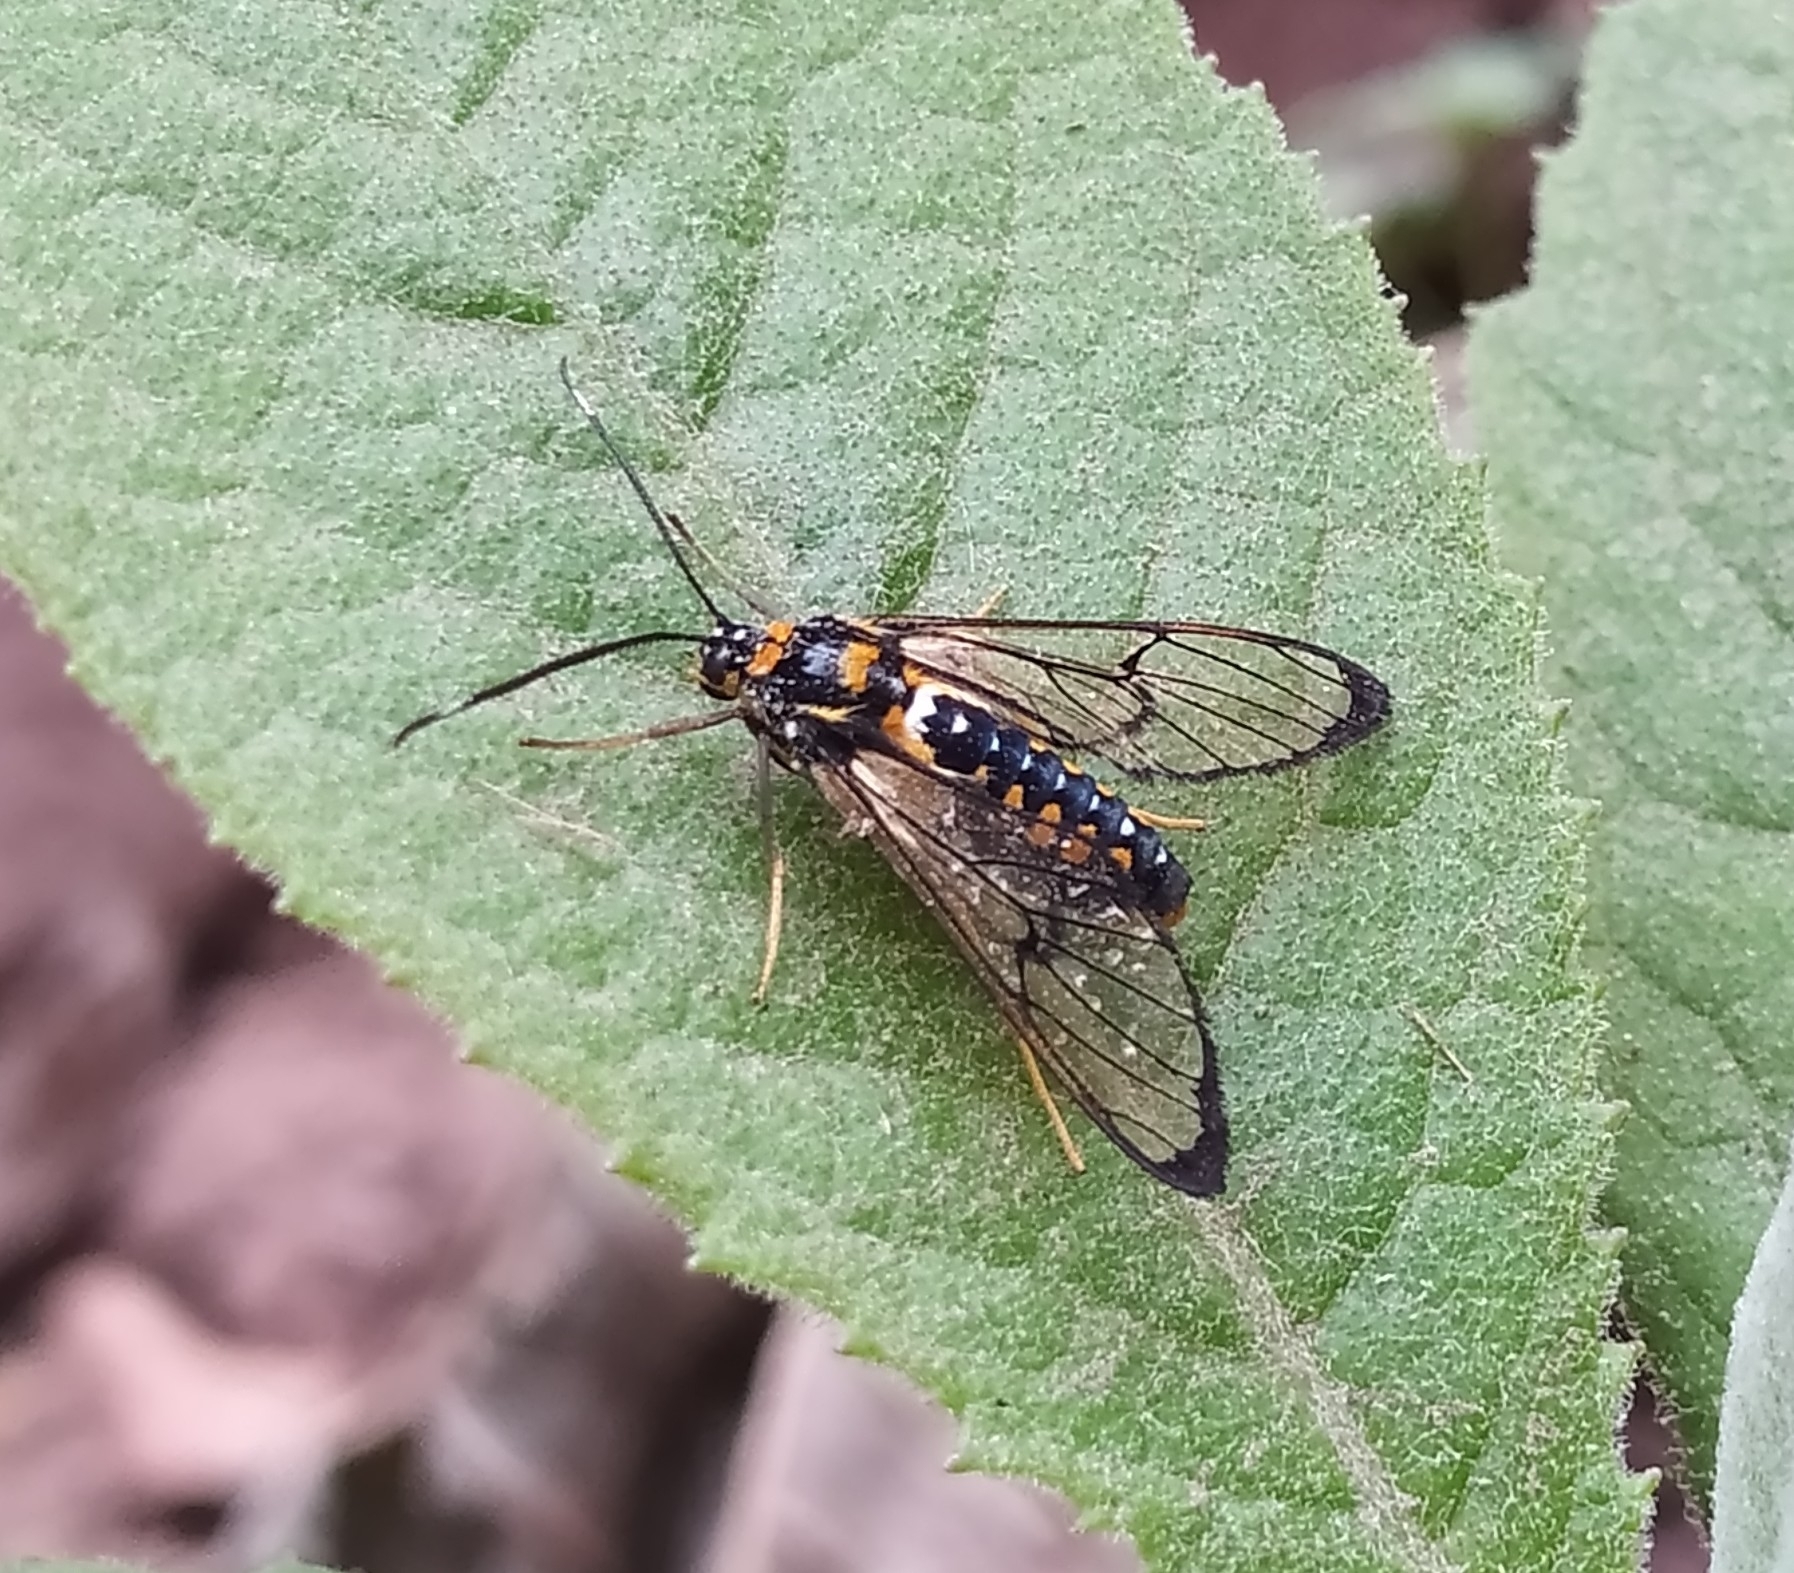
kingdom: Animalia
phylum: Arthropoda
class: Insecta
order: Lepidoptera
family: Erebidae
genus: Pheia
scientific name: Pheia flavicincta
